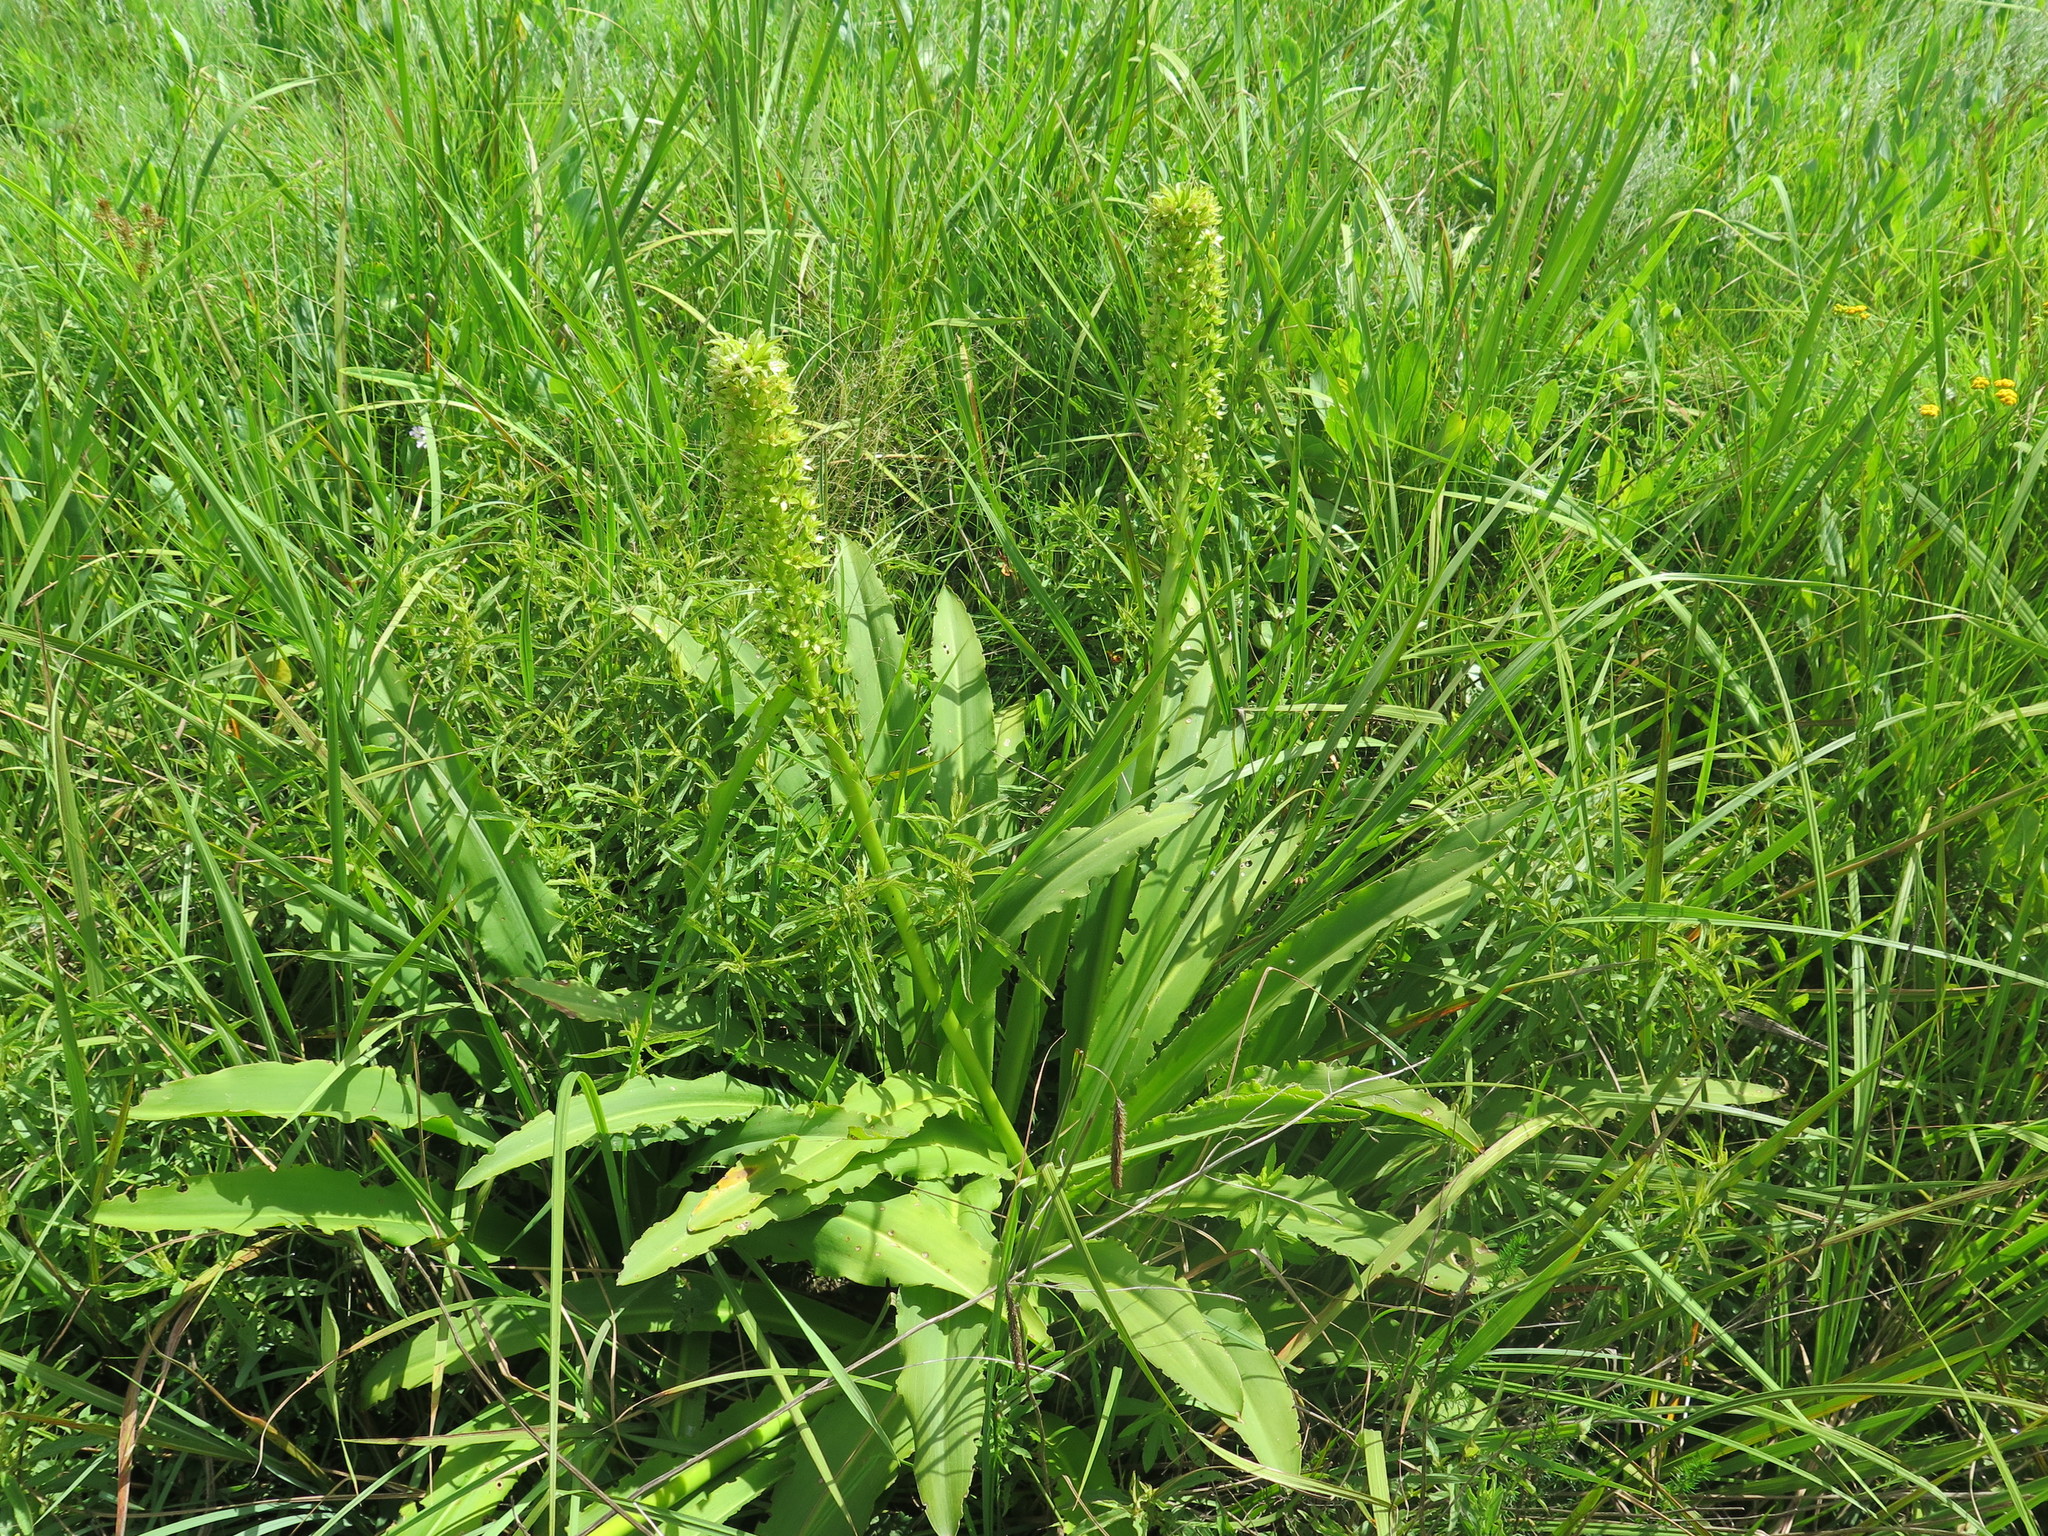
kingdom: Plantae
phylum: Tracheophyta
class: Liliopsida
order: Asparagales
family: Asparagaceae
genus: Eucomis
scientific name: Eucomis pallidiflora
